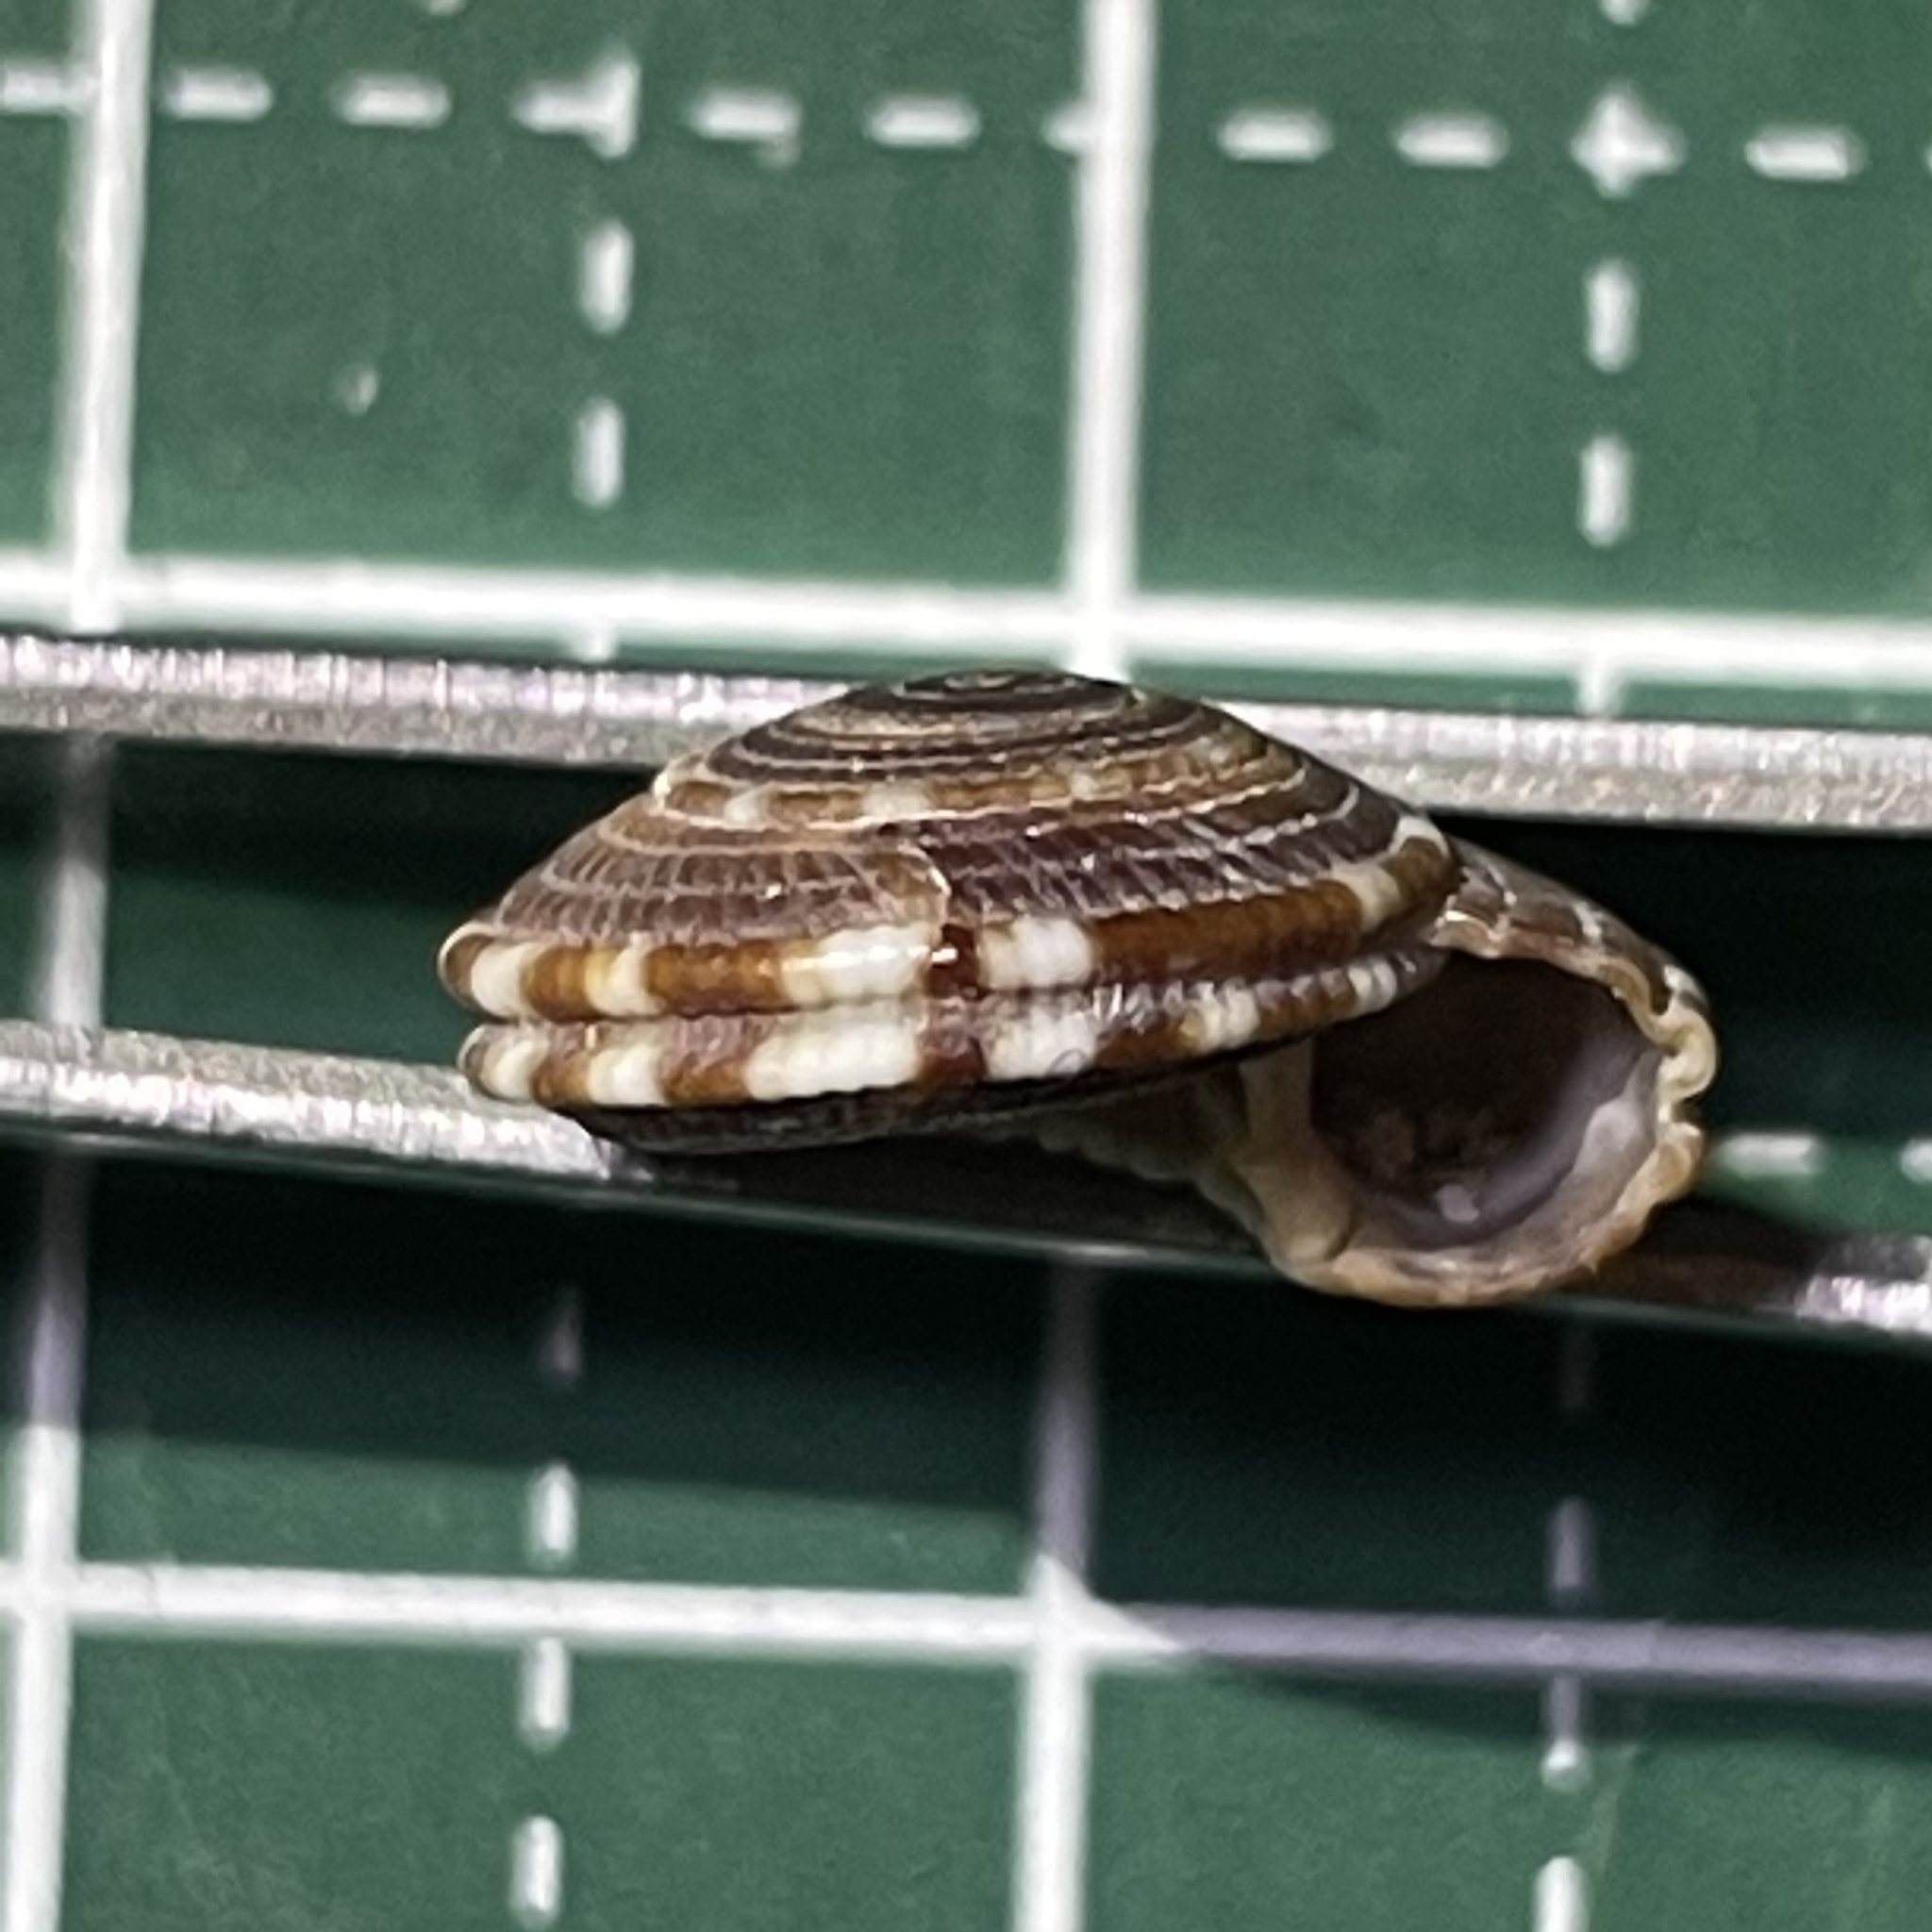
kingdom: Animalia
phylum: Mollusca
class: Gastropoda
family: Architectonicidae
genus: Heliacus
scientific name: Heliacus variegatus
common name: Variegated sundial
